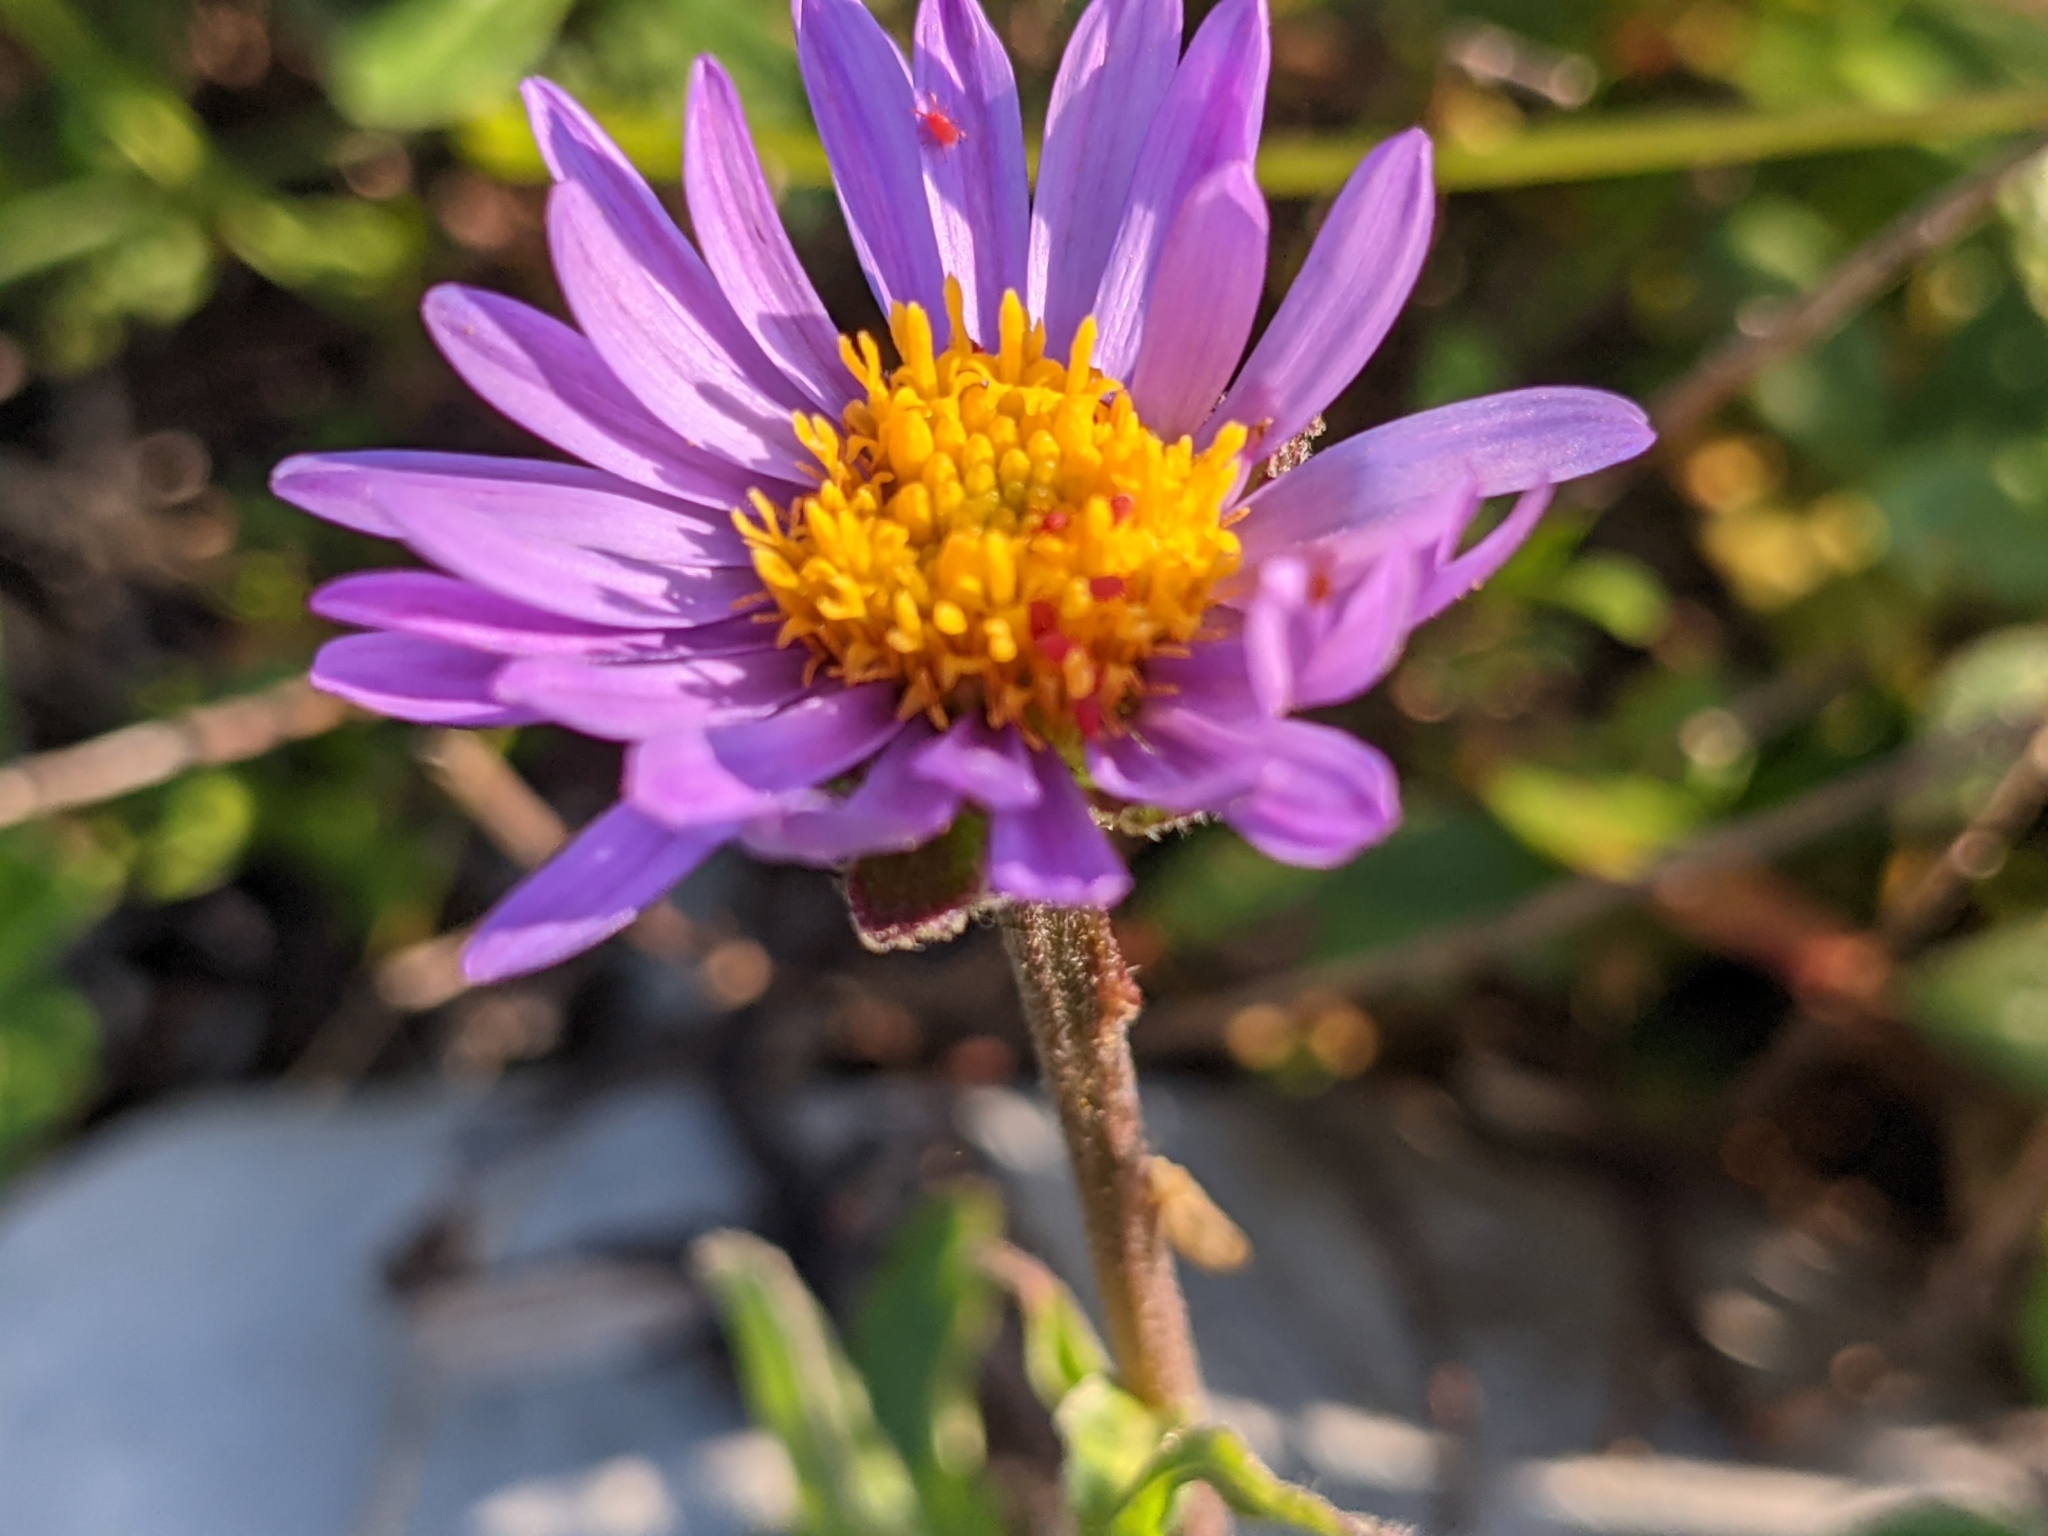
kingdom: Plantae
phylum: Tracheophyta
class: Magnoliopsida
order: Asterales
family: Asteraceae
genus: Aster
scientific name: Aster alpinus
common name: Alpine aster
